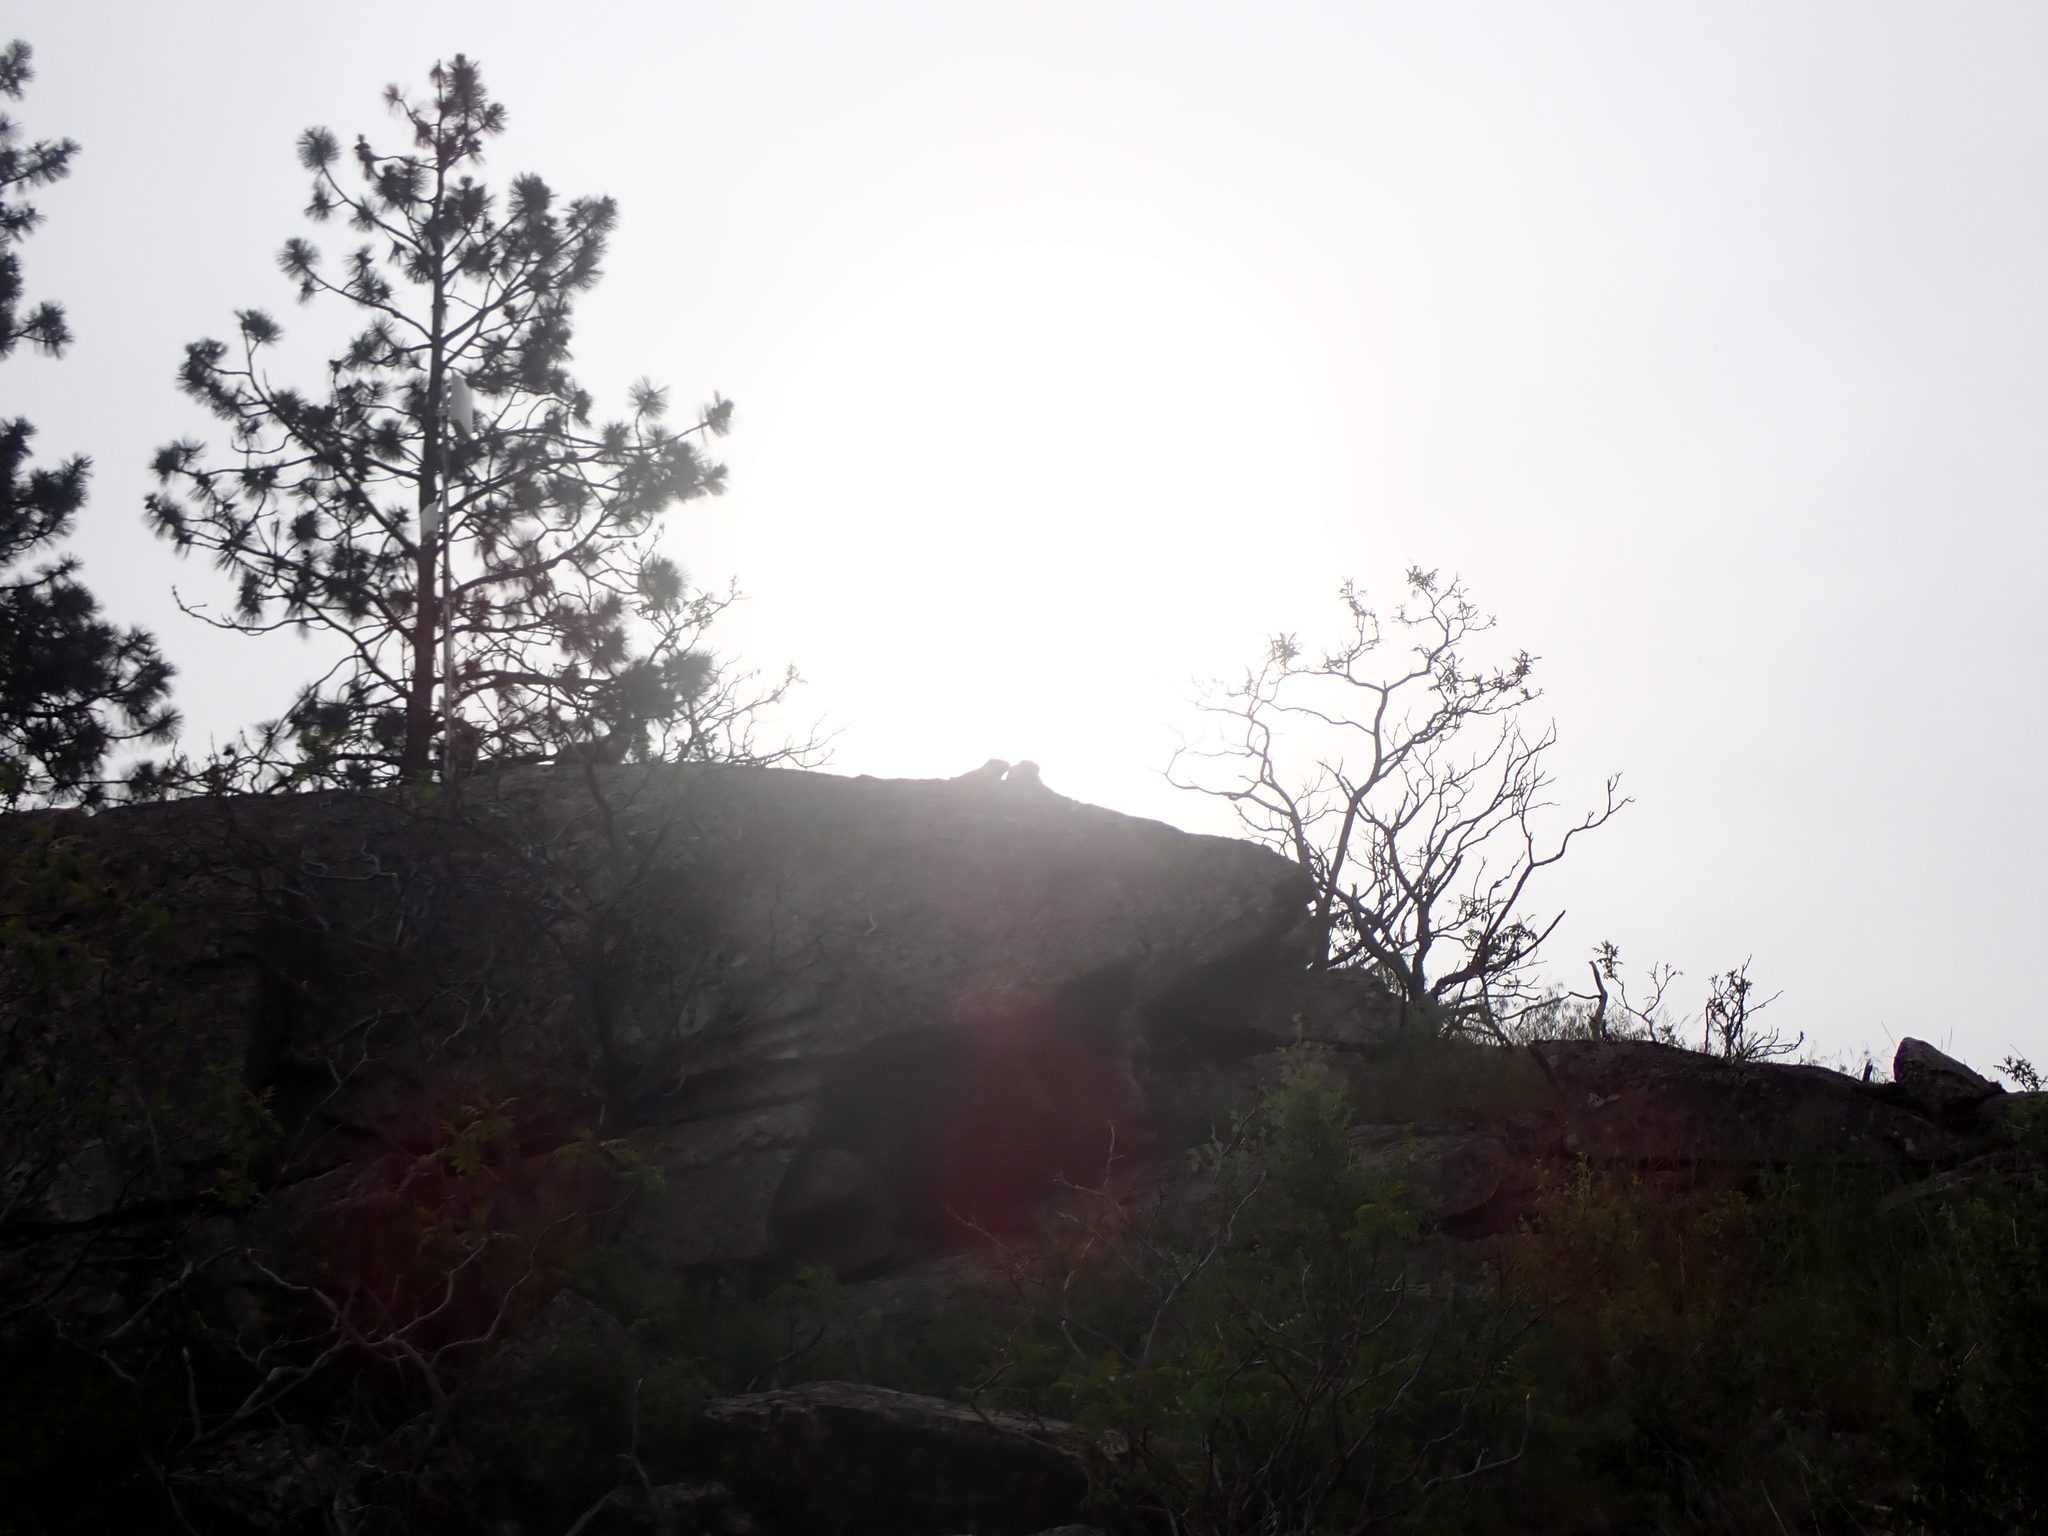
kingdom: Animalia
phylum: Chordata
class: Mammalia
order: Rodentia
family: Sciuridae
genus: Marmota
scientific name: Marmota flaviventris
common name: Yellow-bellied marmot
